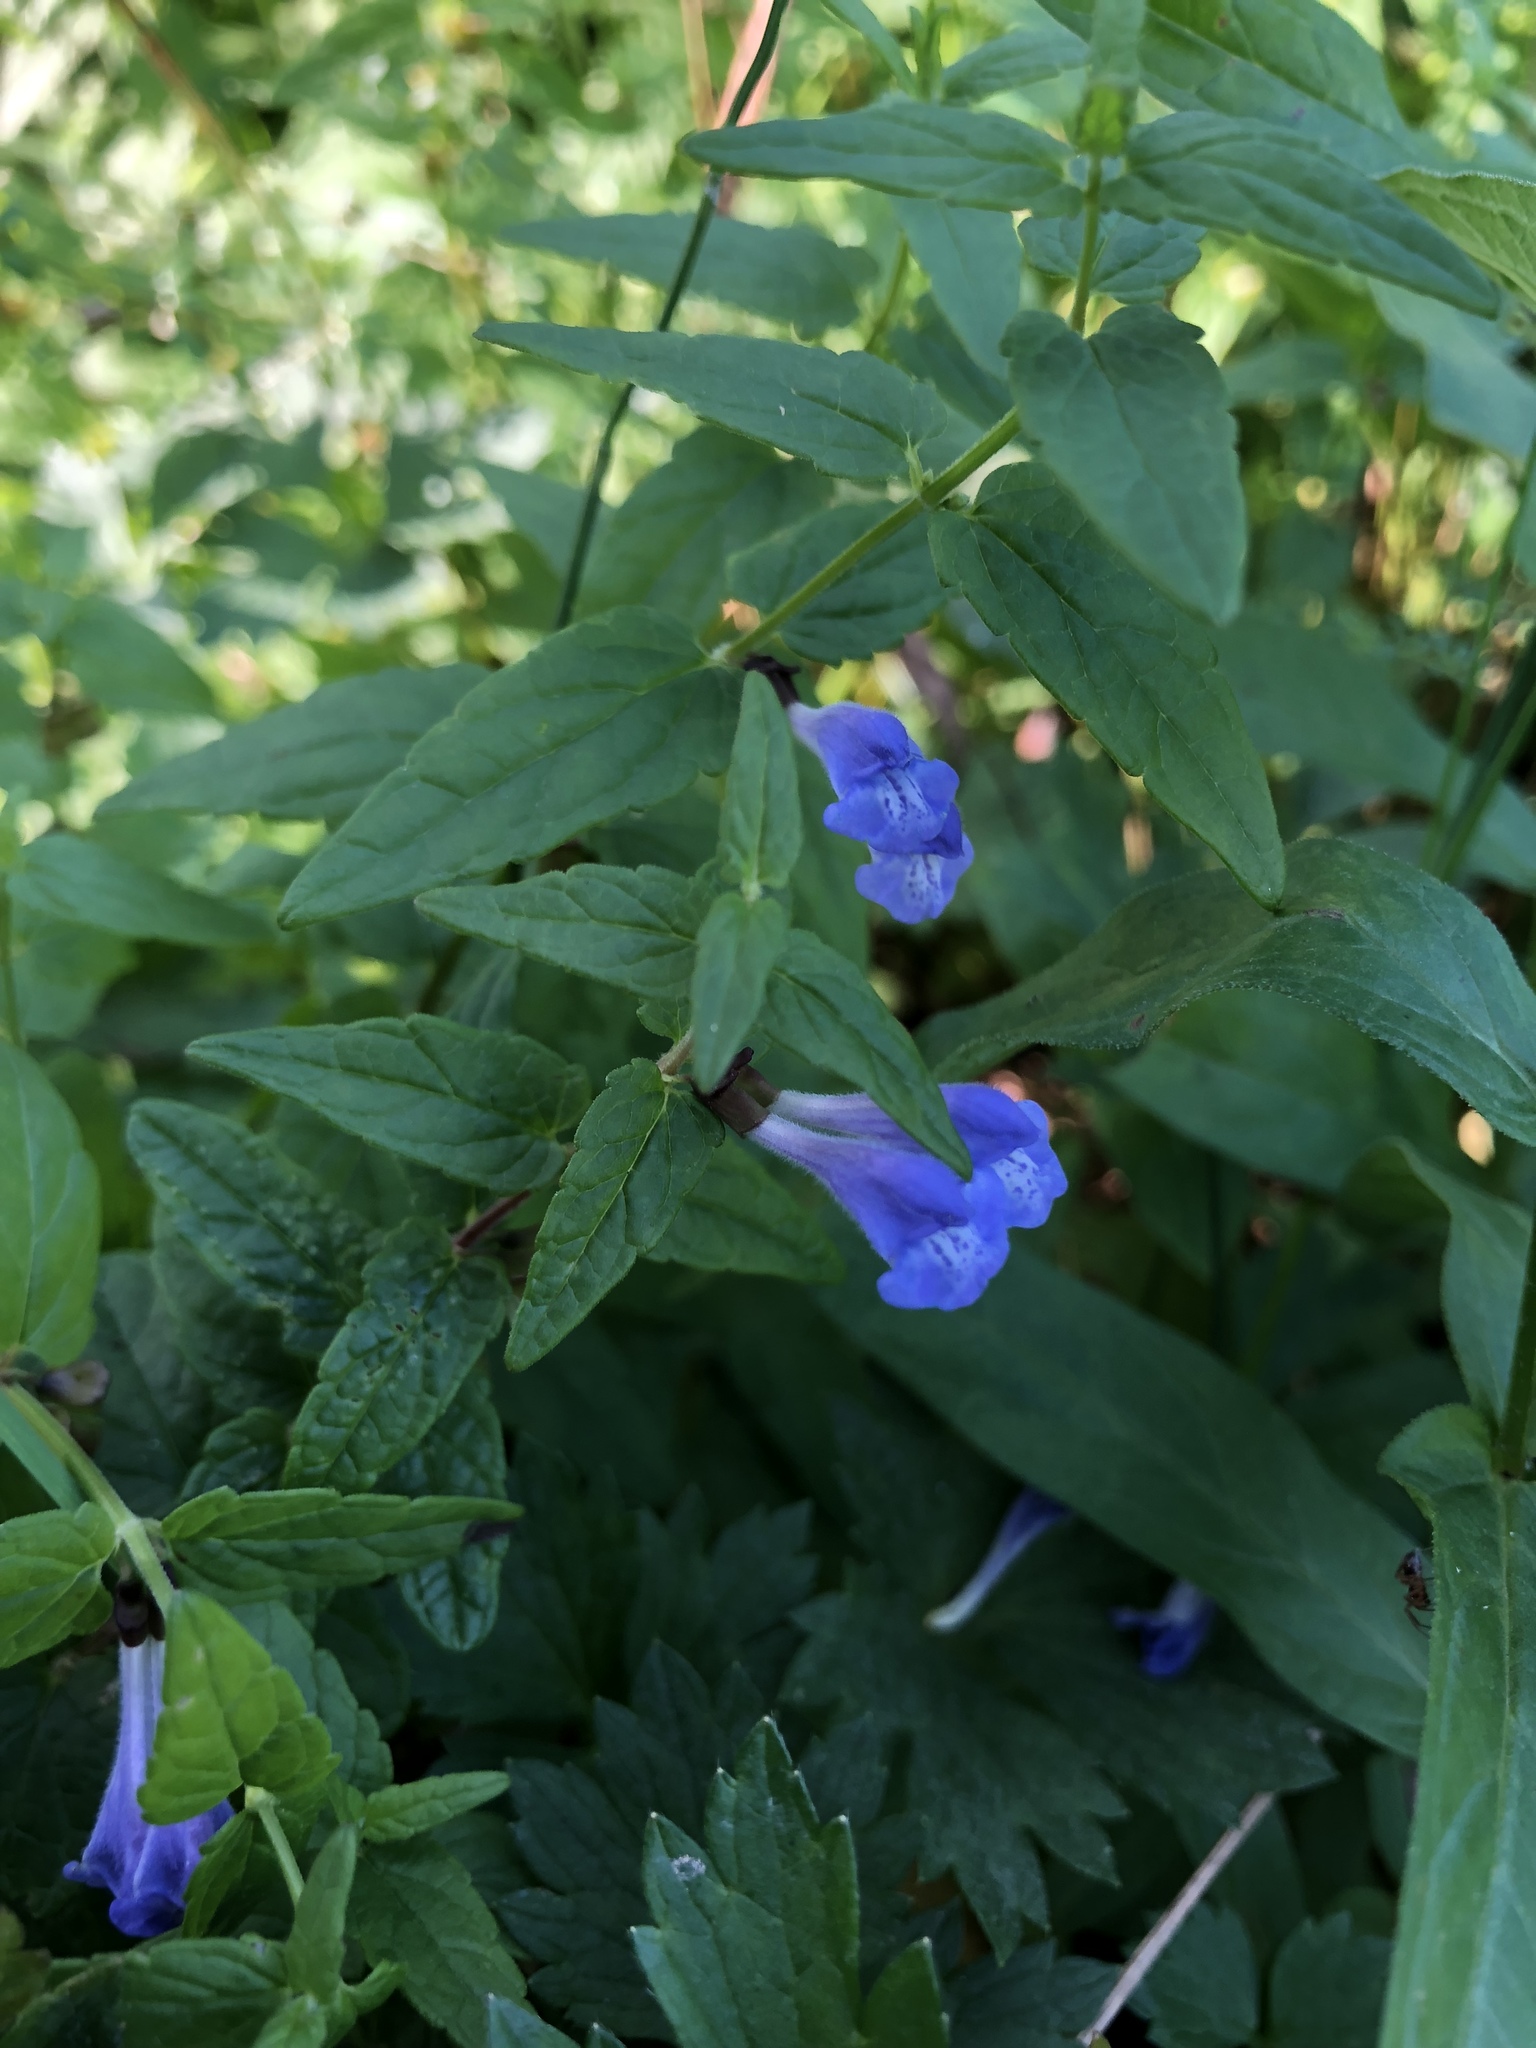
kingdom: Plantae
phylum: Tracheophyta
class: Magnoliopsida
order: Lamiales
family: Lamiaceae
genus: Scutellaria
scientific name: Scutellaria galericulata
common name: Skullcap
